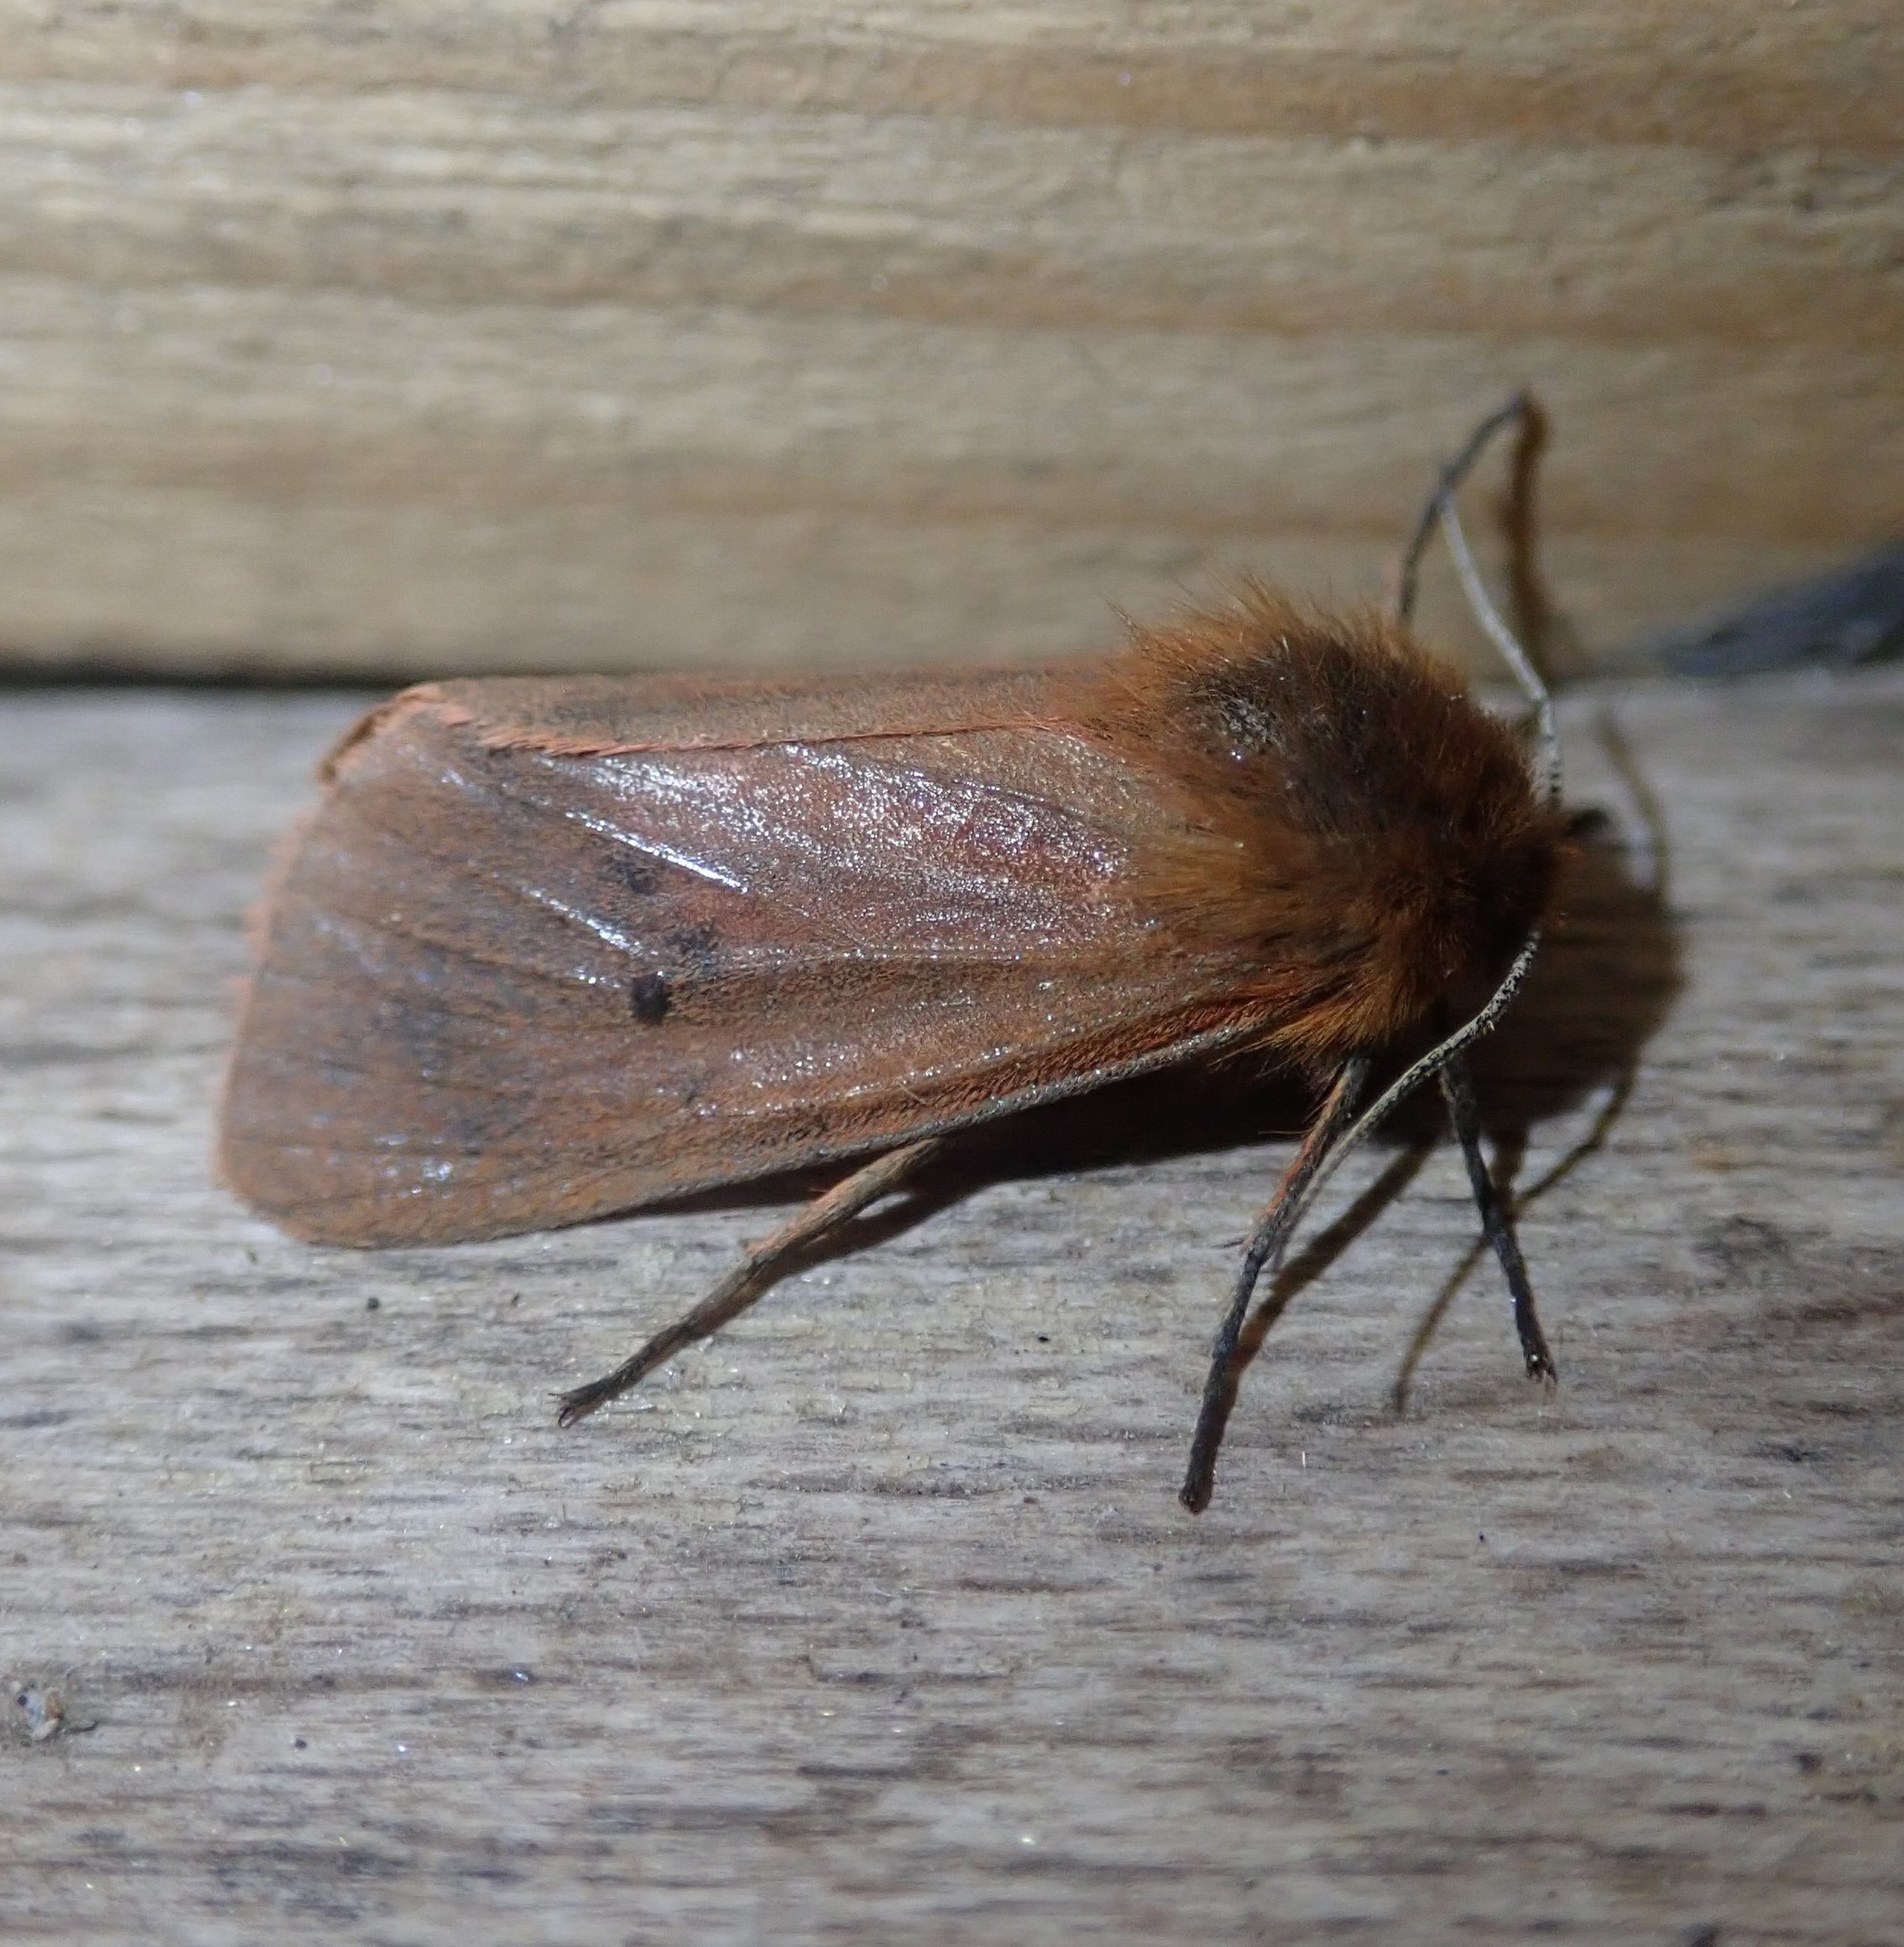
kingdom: Animalia
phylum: Arthropoda
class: Insecta
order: Lepidoptera
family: Erebidae
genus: Phragmatobia
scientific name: Phragmatobia fuliginosa
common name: Ruby tiger
